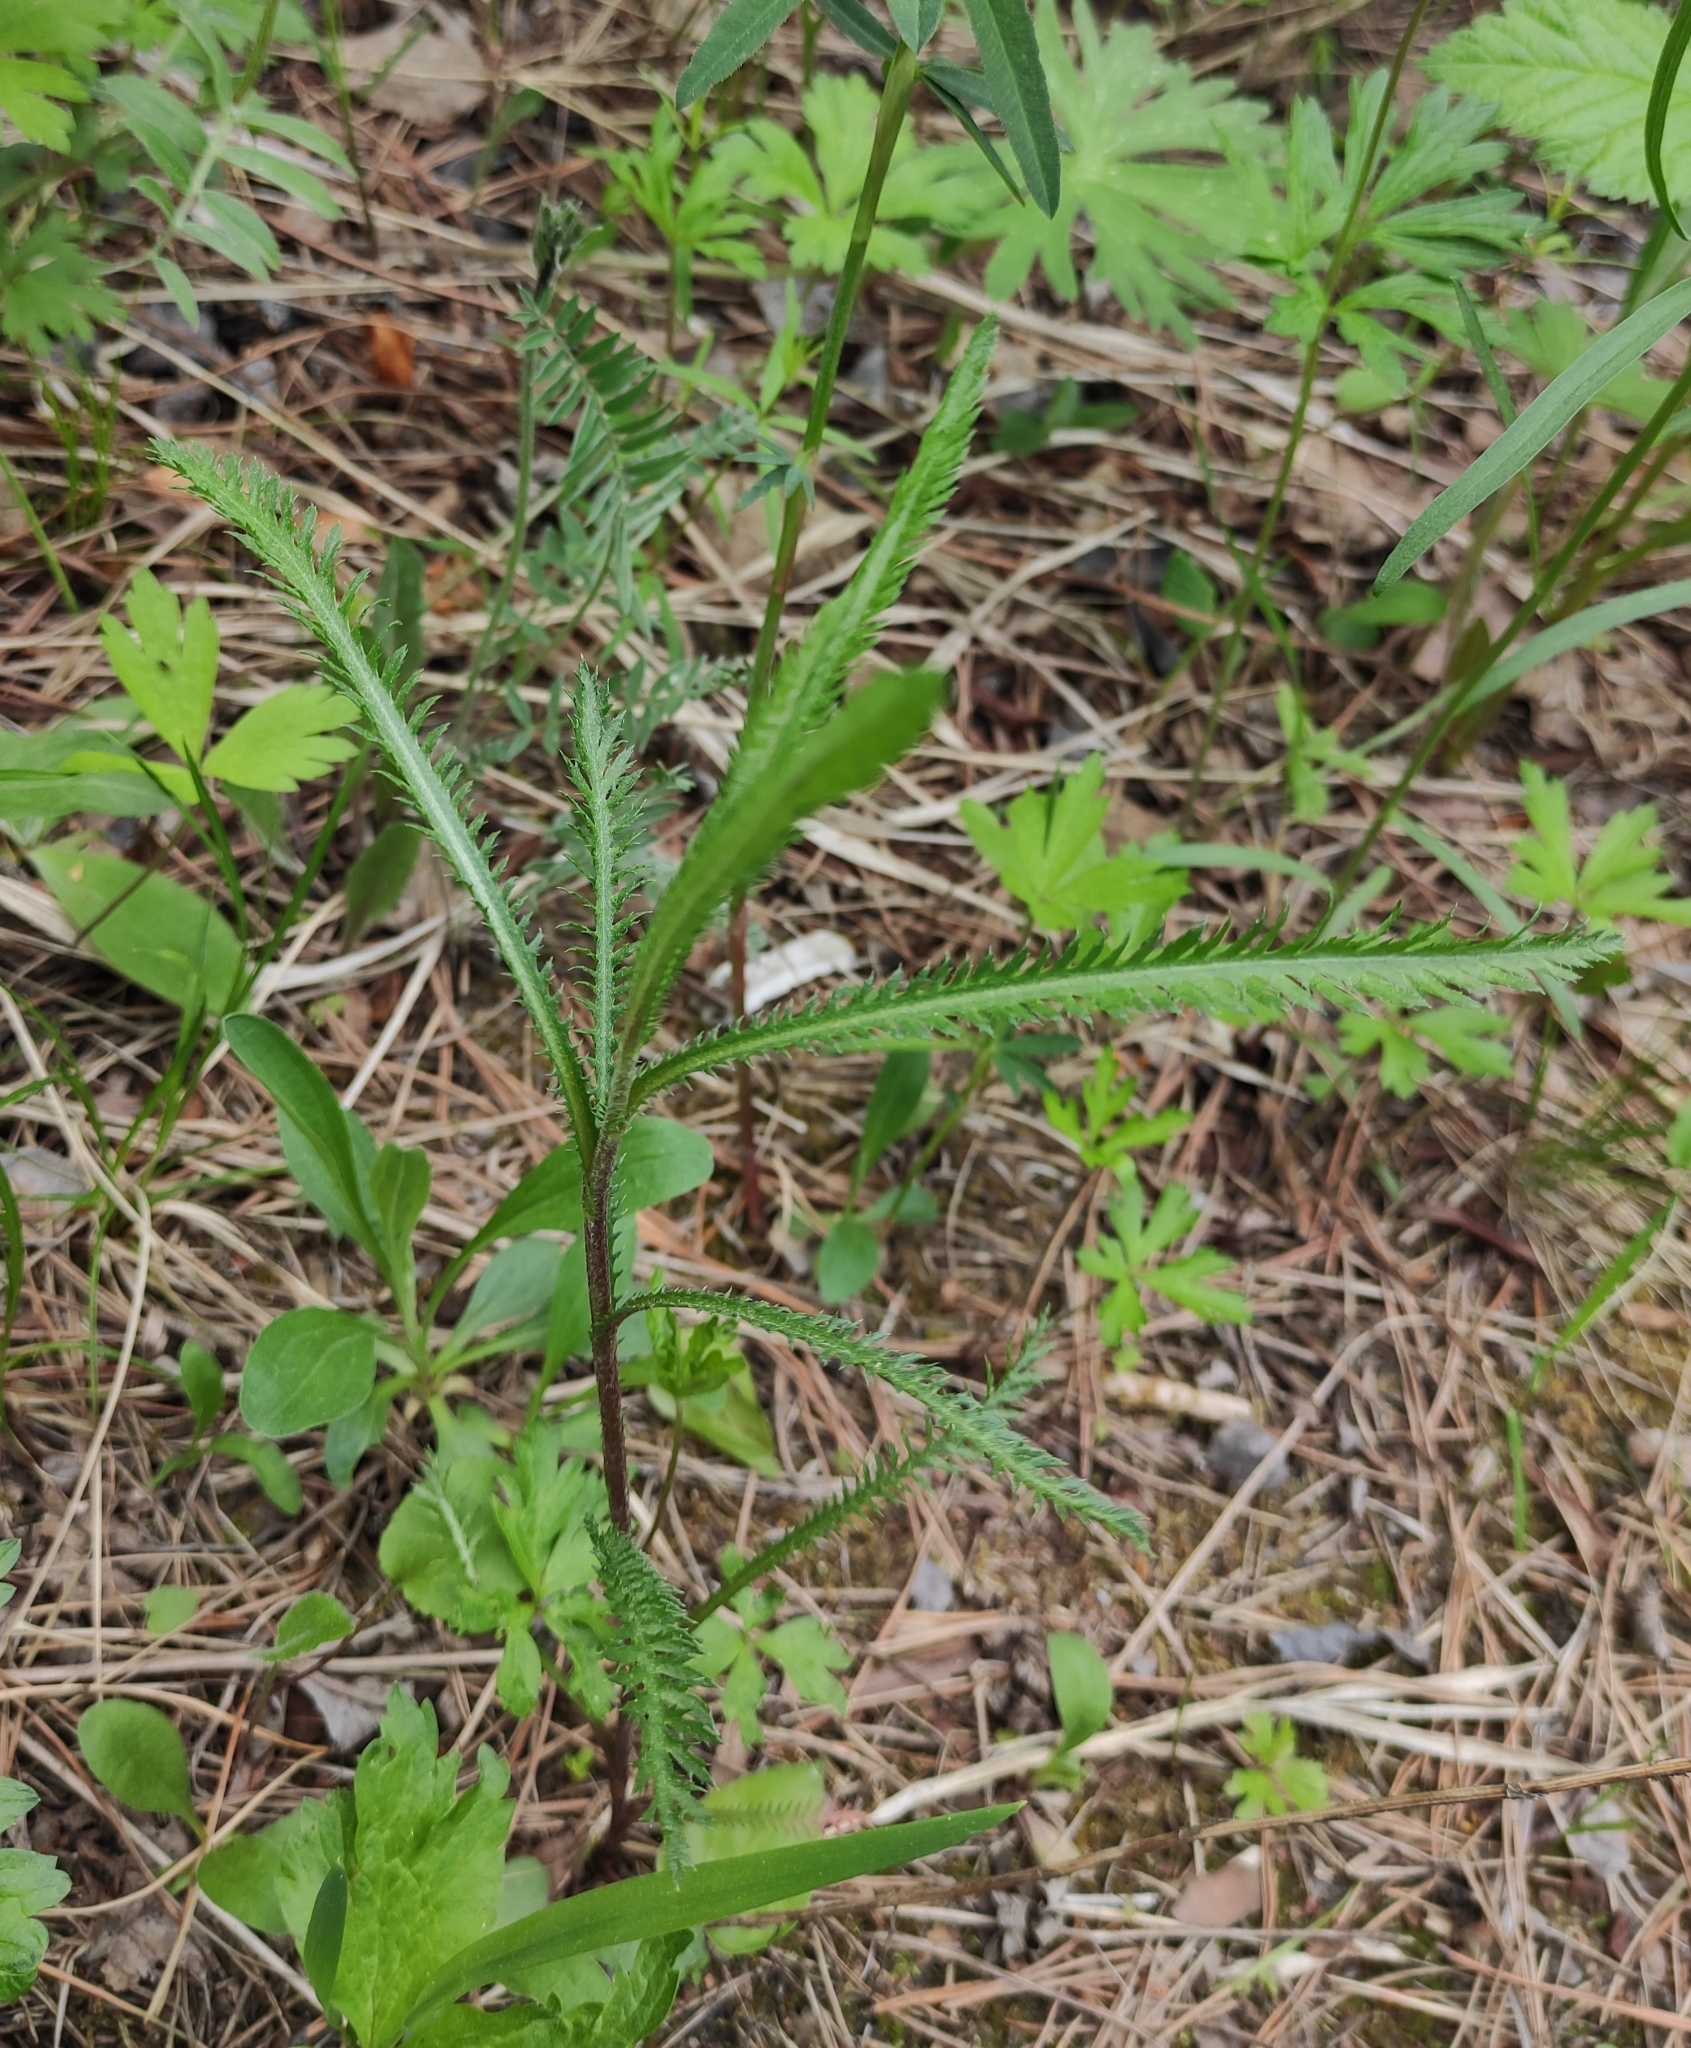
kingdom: Plantae
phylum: Tracheophyta
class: Magnoliopsida
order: Asterales
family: Asteraceae
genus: Achillea
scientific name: Achillea alpina
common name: Siberian yarrow
